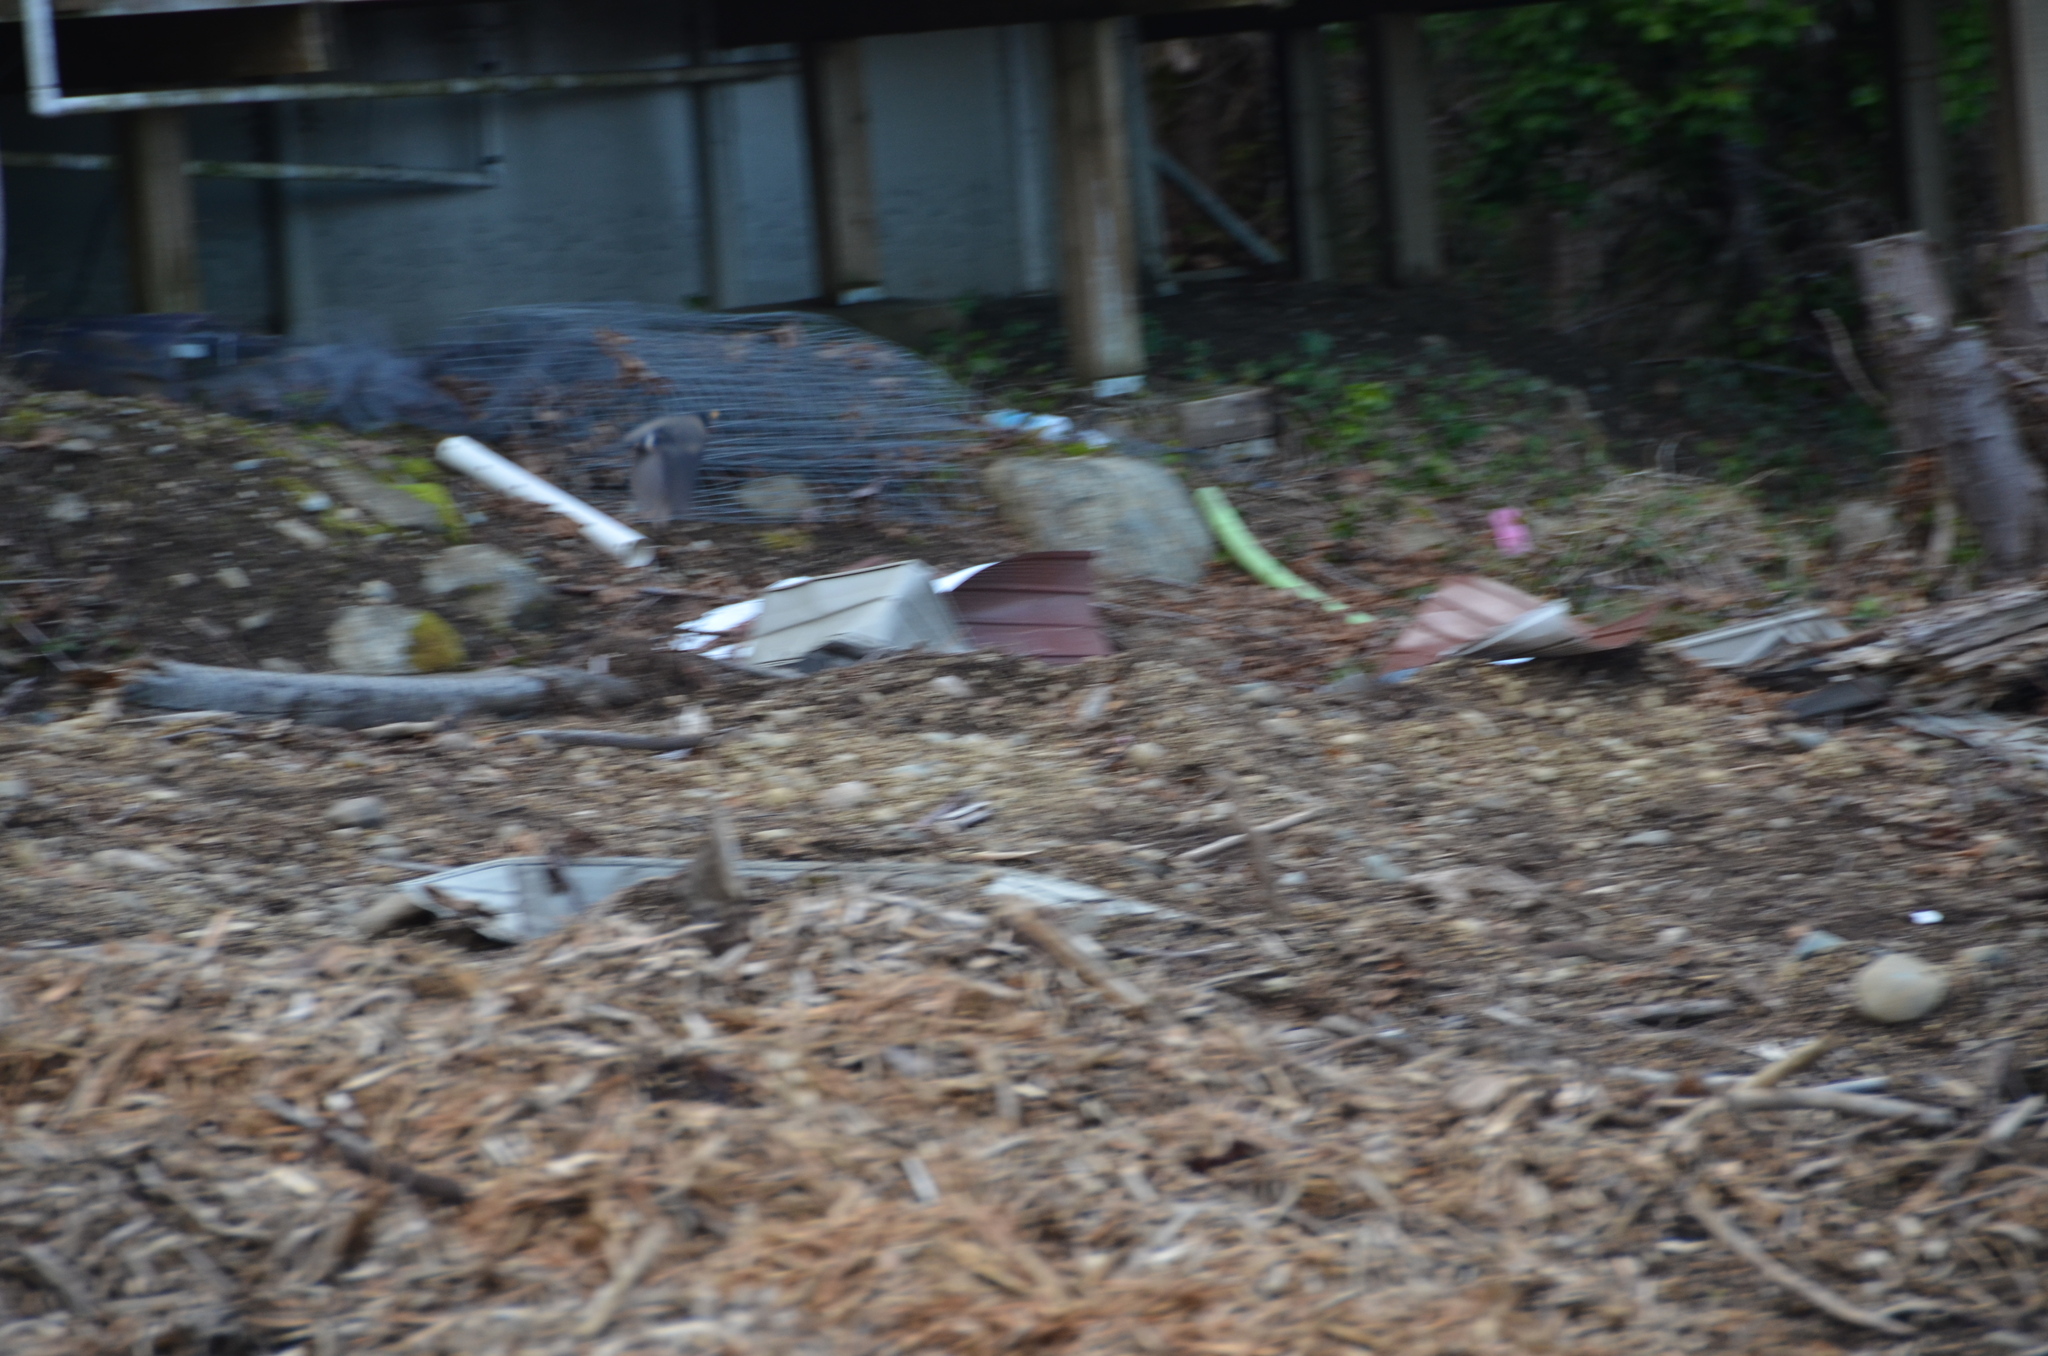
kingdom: Animalia
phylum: Chordata
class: Aves
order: Passeriformes
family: Turdidae
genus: Turdus
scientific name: Turdus migratorius
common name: American robin
